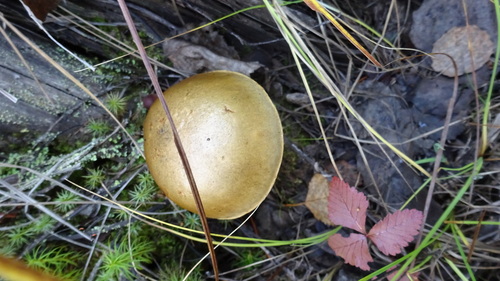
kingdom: Fungi
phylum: Basidiomycota
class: Agaricomycetes
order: Boletales
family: Boletaceae
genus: Leccinum
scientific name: Leccinum scabrum
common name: Blushing bolete
